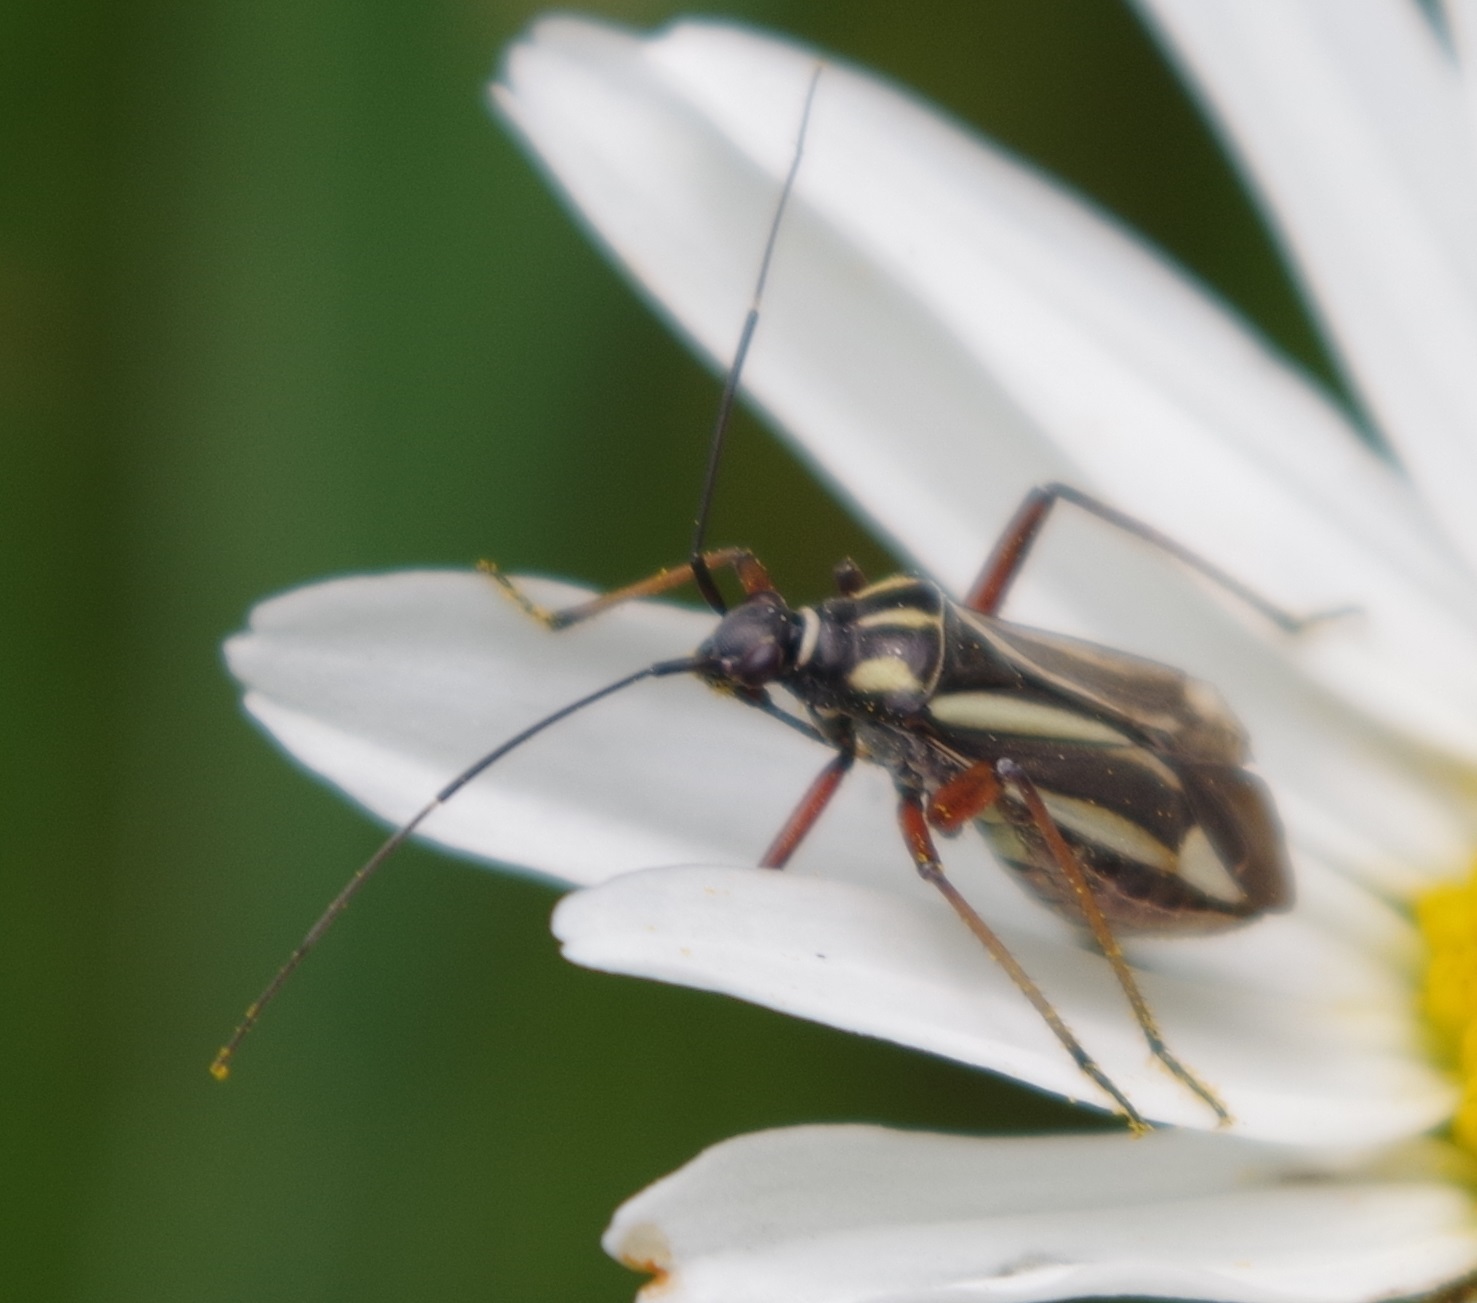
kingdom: Animalia
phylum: Arthropoda
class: Insecta
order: Hemiptera
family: Miridae
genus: Hadrodemus
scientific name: Hadrodemus m-flavum
